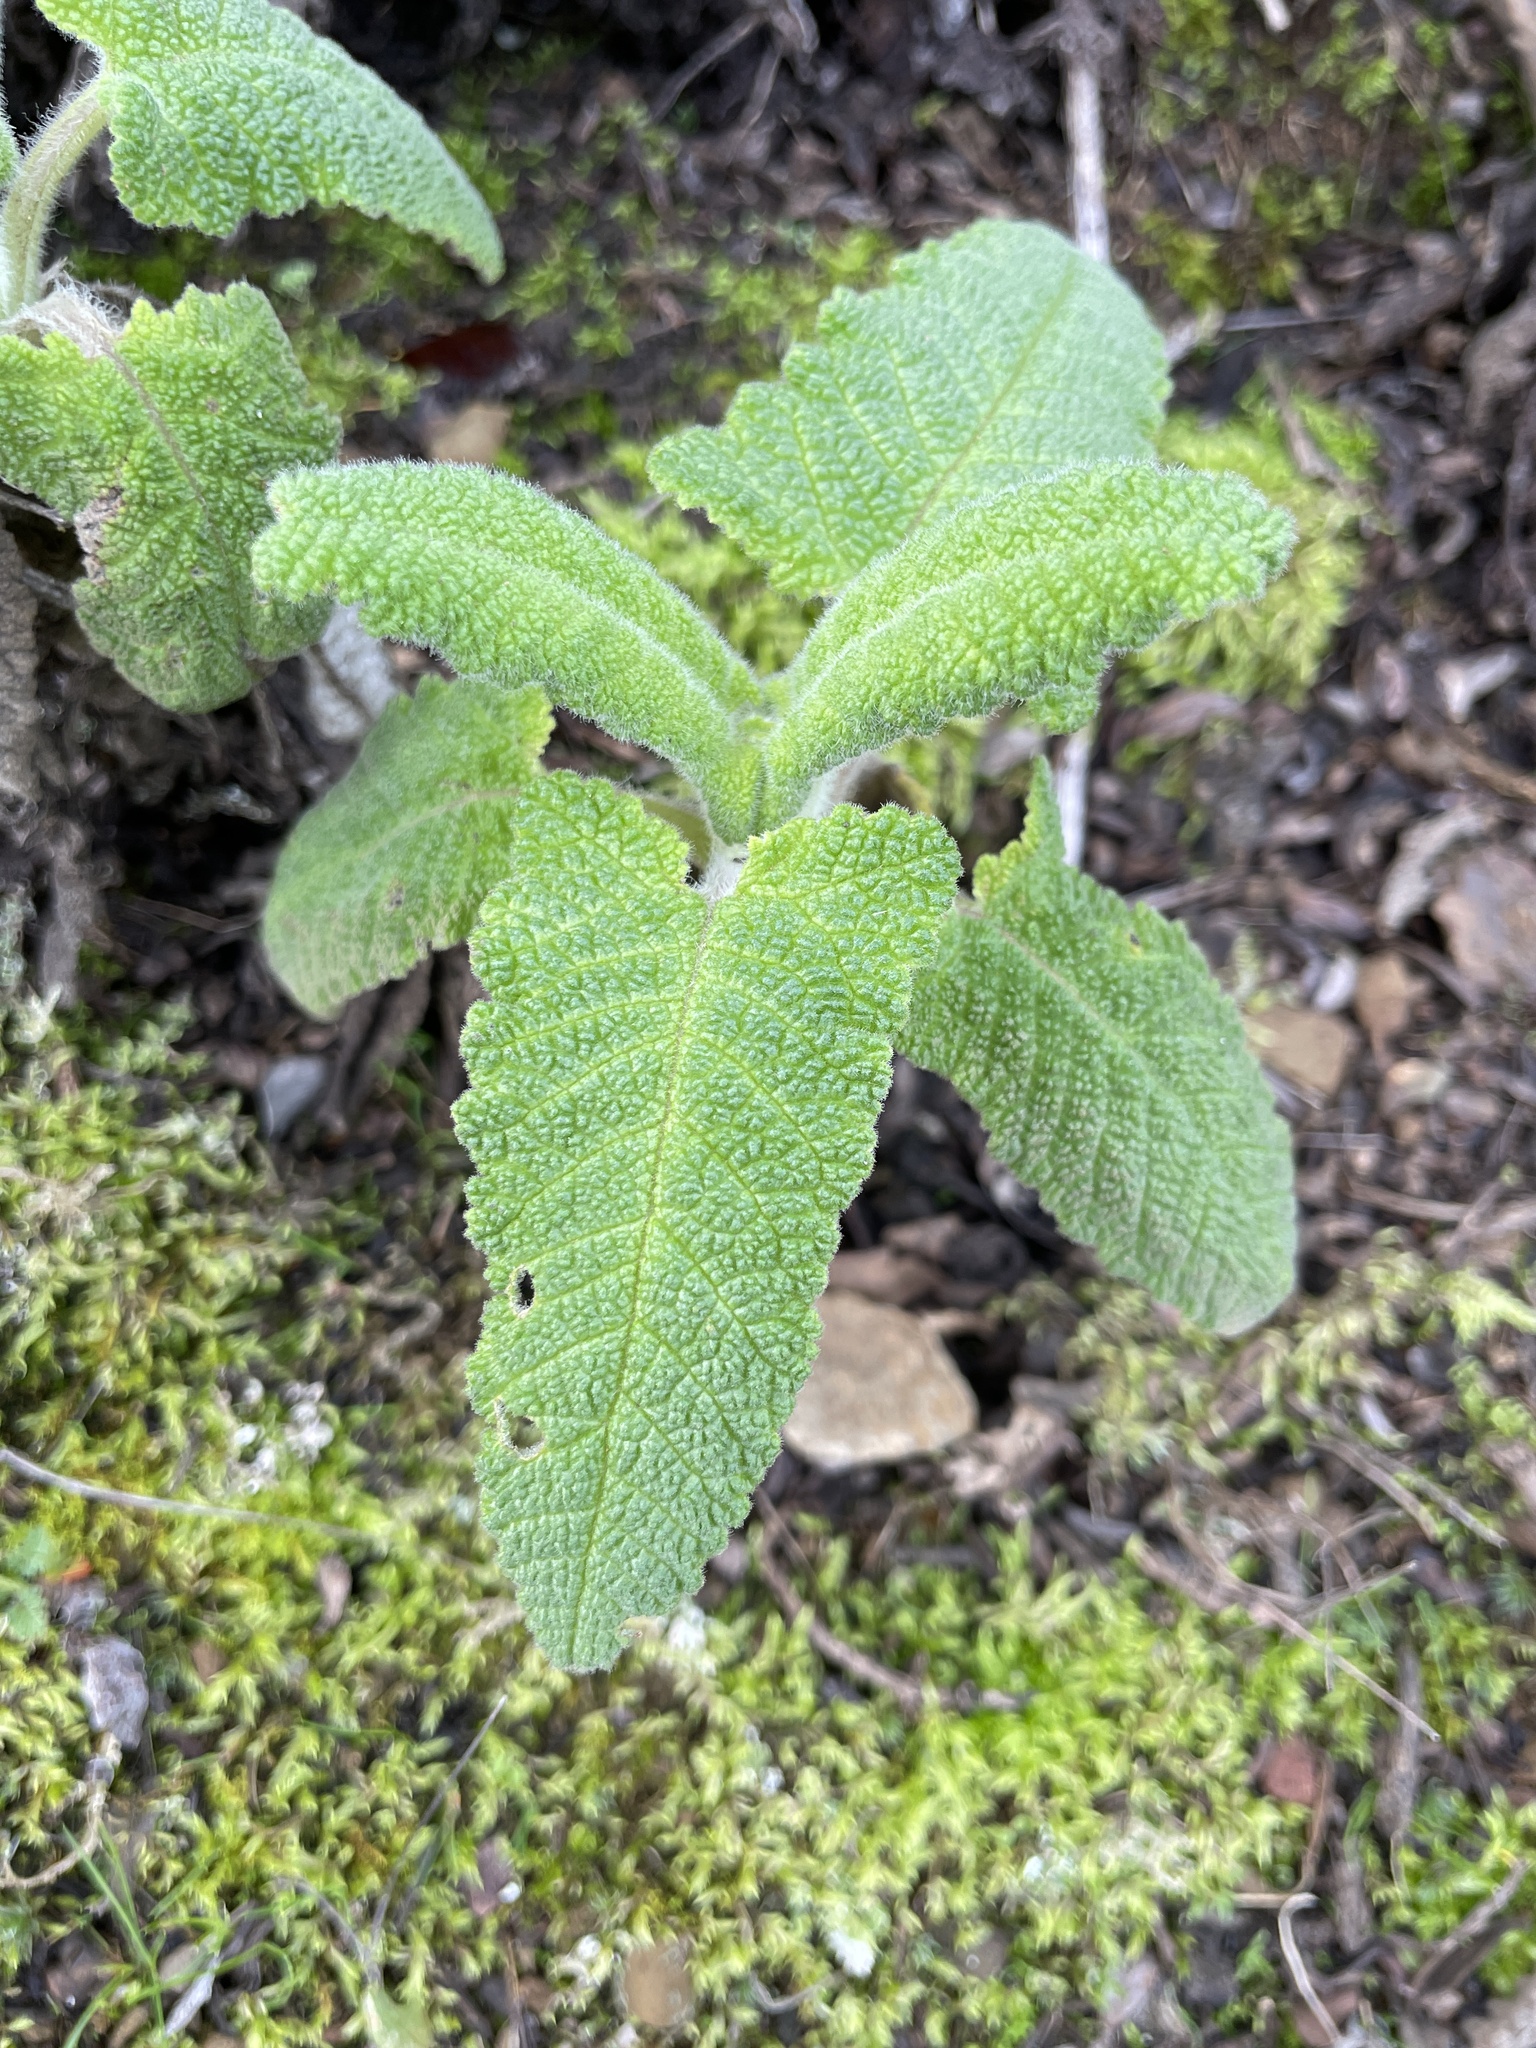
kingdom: Plantae
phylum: Tracheophyta
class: Magnoliopsida
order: Lamiales
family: Lamiaceae
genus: Salvia
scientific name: Salvia spathacea
